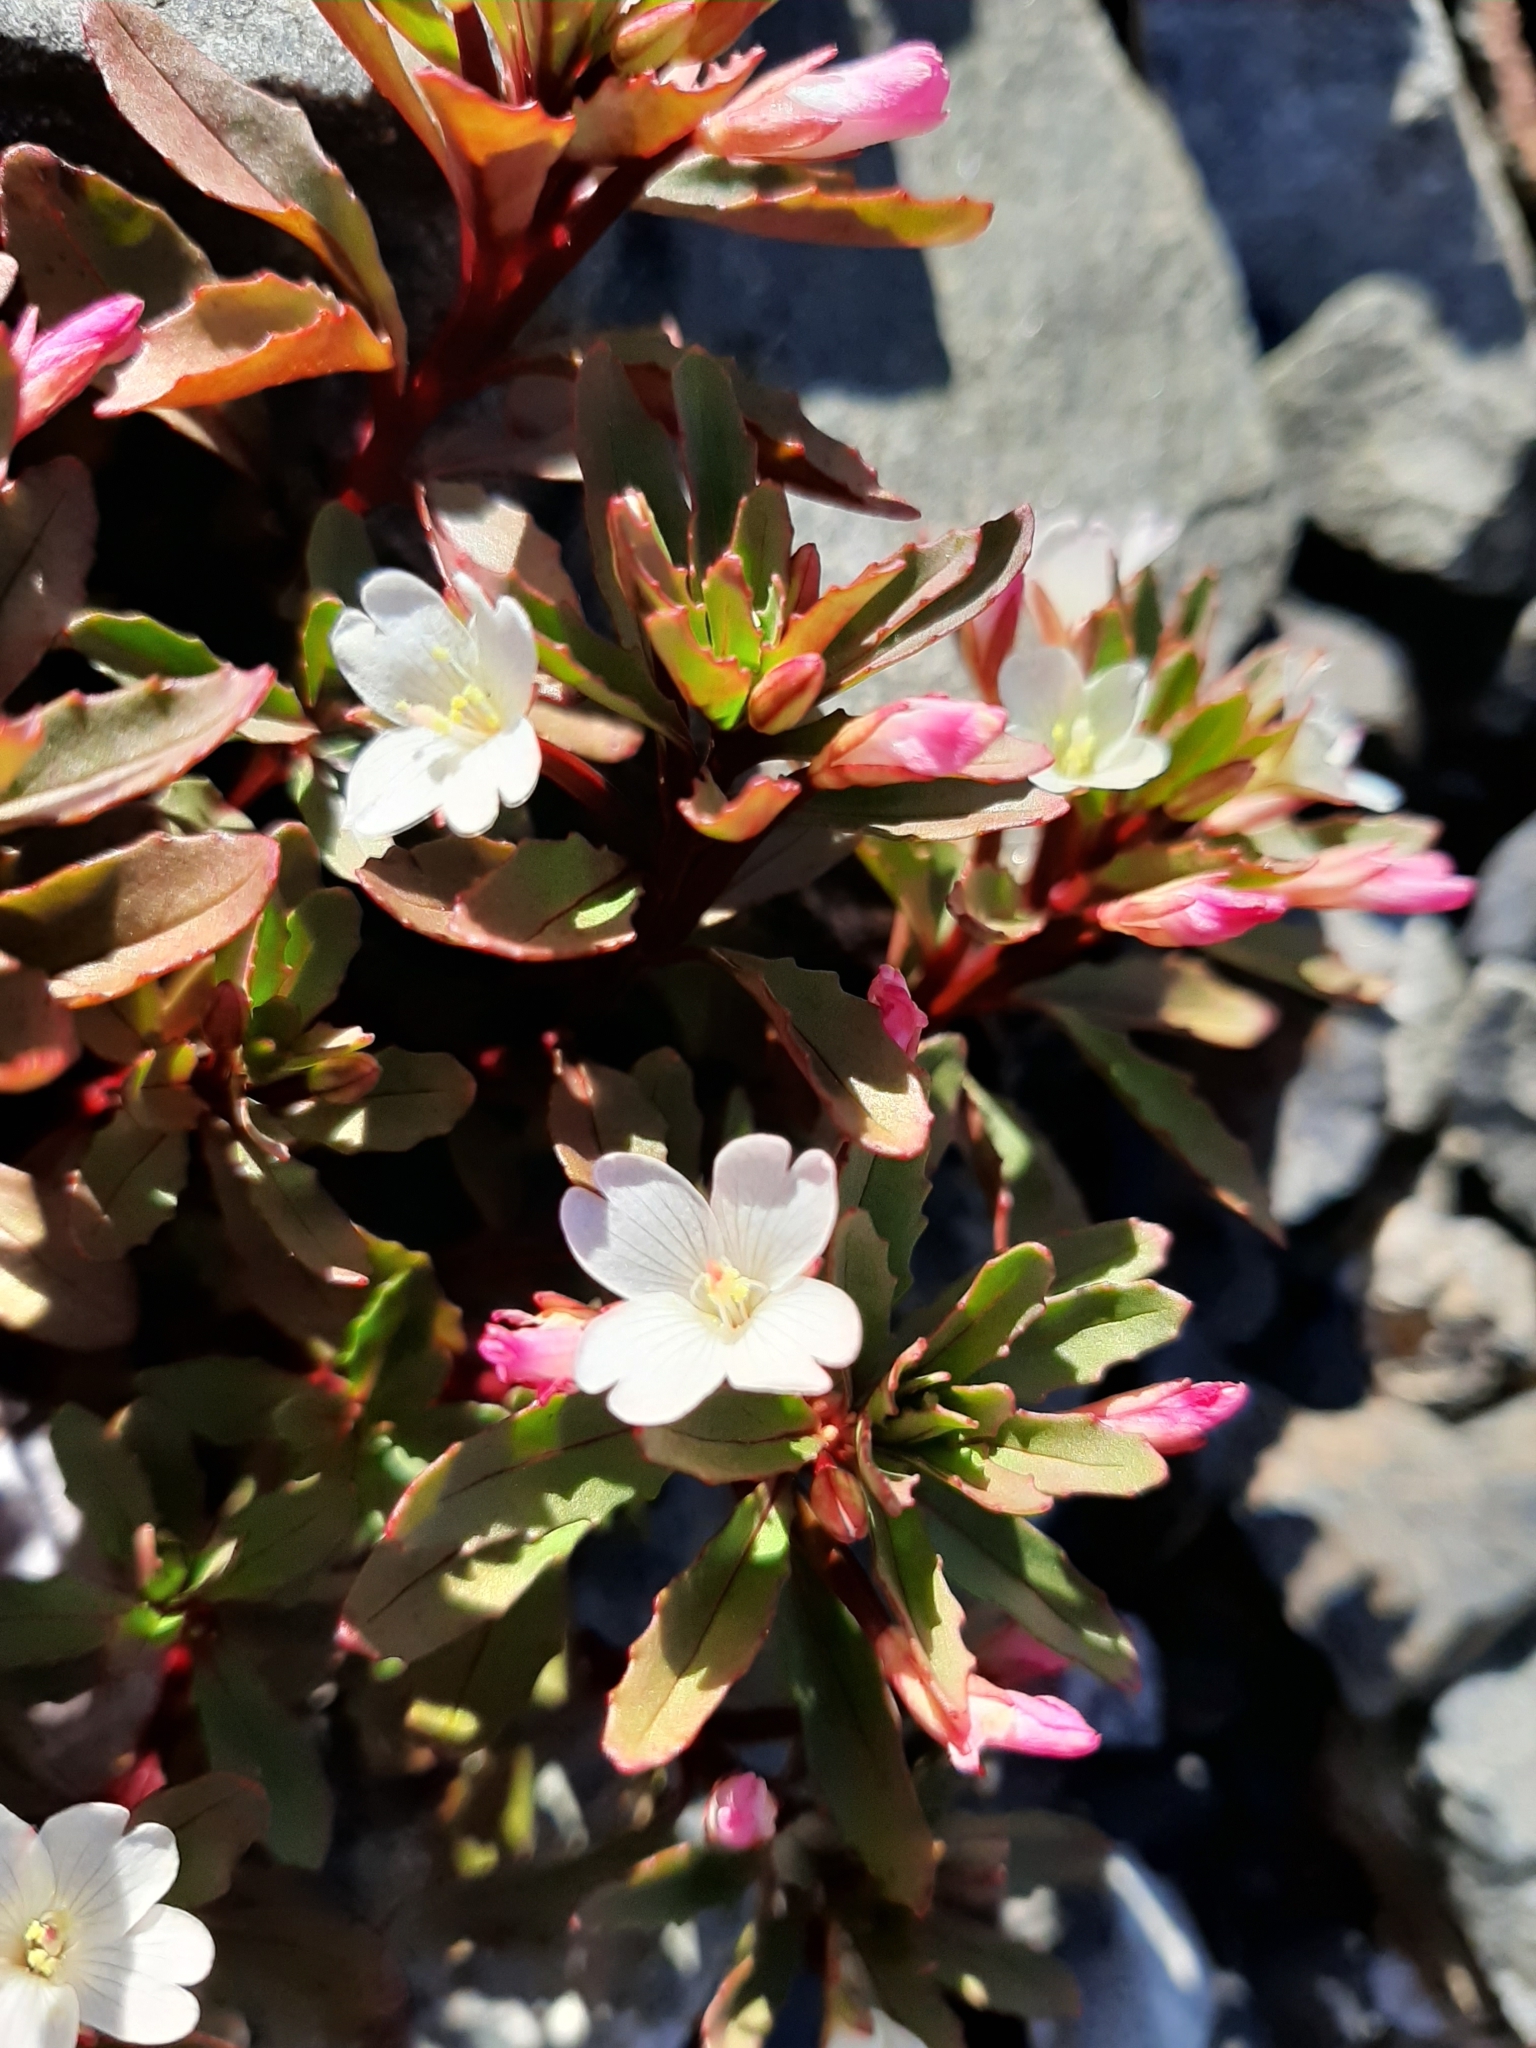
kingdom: Plantae
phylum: Tracheophyta
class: Magnoliopsida
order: Myrtales
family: Onagraceae
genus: Epilobium
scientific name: Epilobium pycnostachyum
